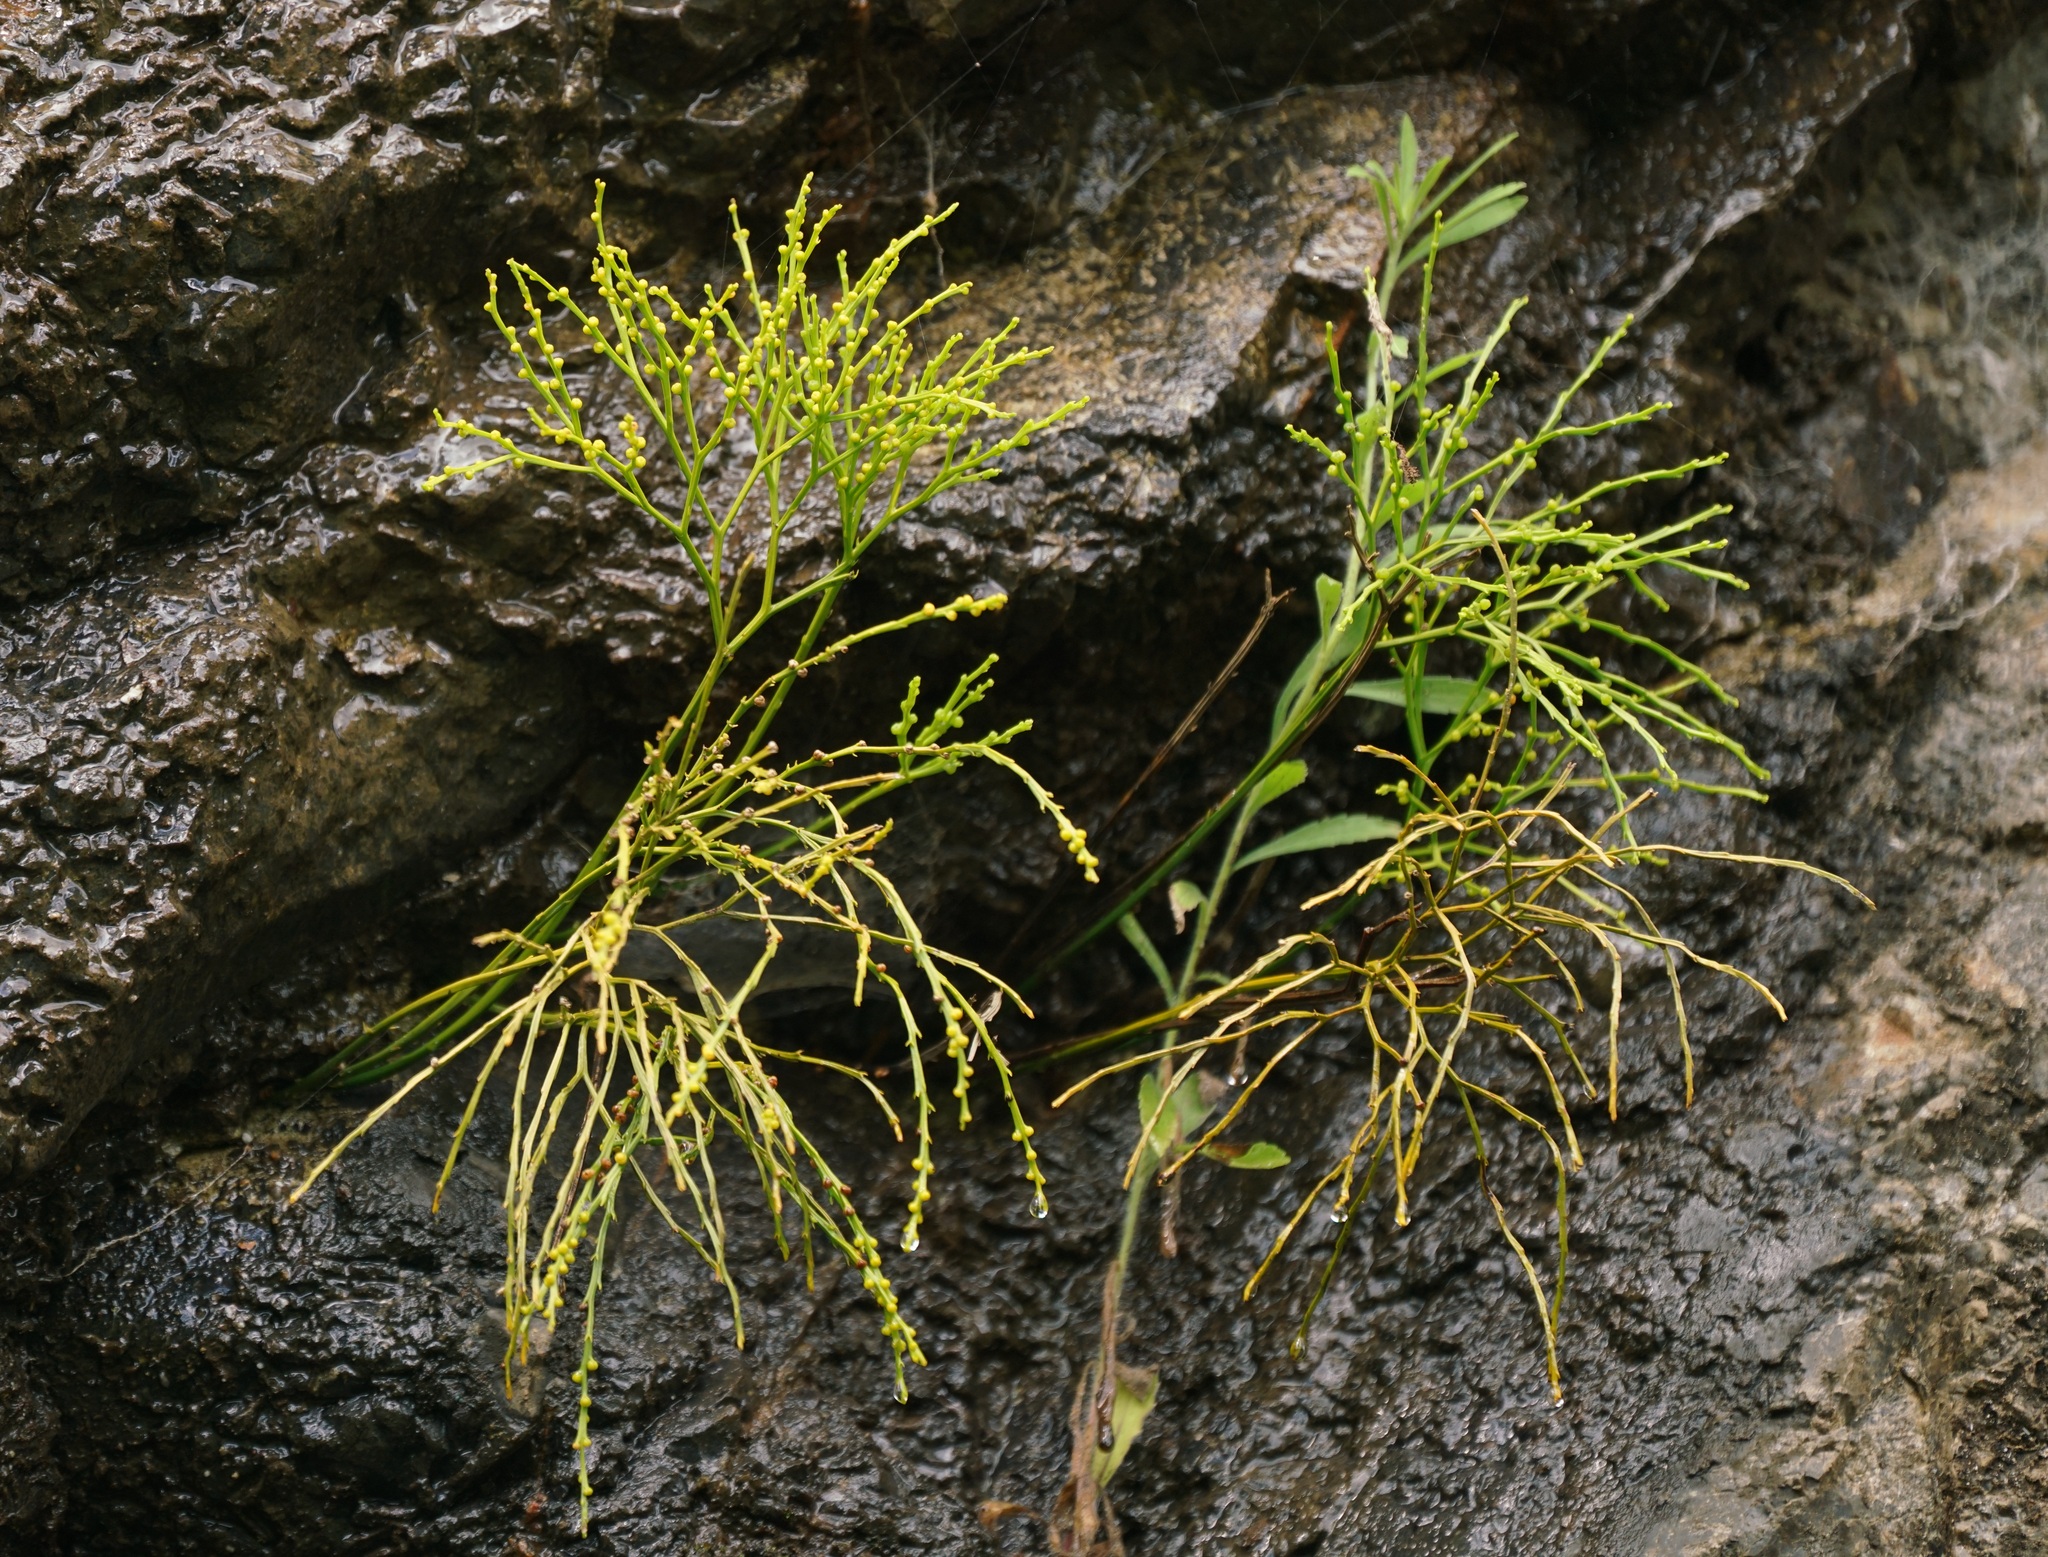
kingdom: Plantae
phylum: Tracheophyta
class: Polypodiopsida
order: Psilotales
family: Psilotaceae
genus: Psilotum
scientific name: Psilotum nudum
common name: Skeleton fork fern
